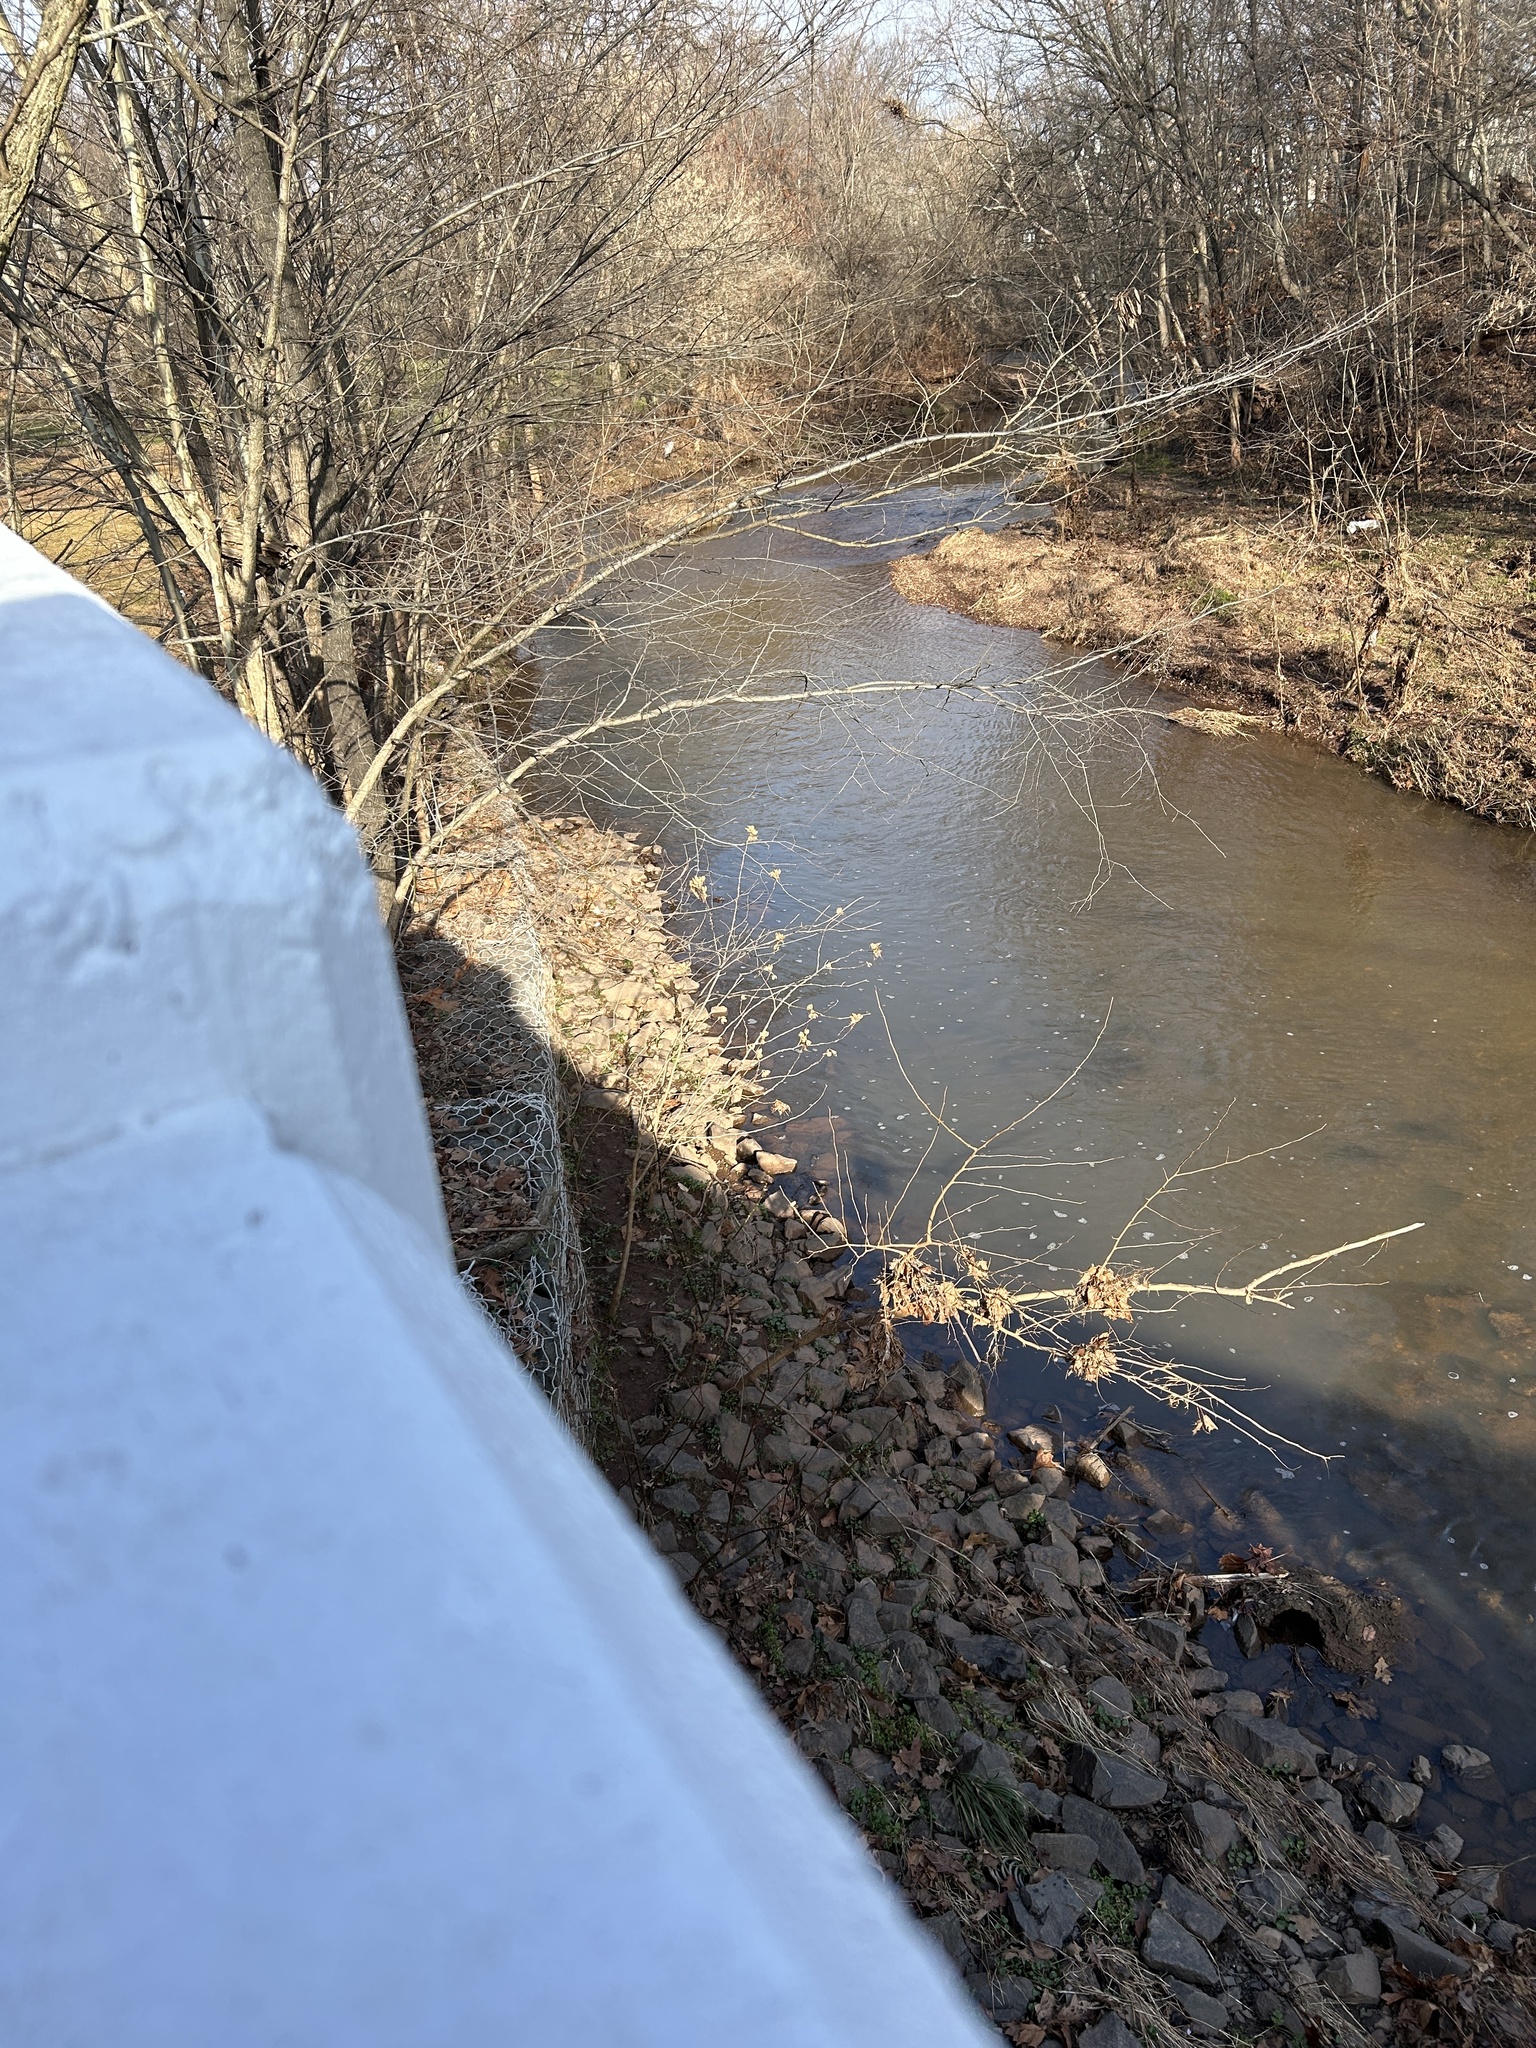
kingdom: Plantae
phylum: Tracheophyta
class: Magnoliopsida
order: Malvales
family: Malvaceae
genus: Hibiscus
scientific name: Hibiscus syriacus
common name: Syrian ketmia
